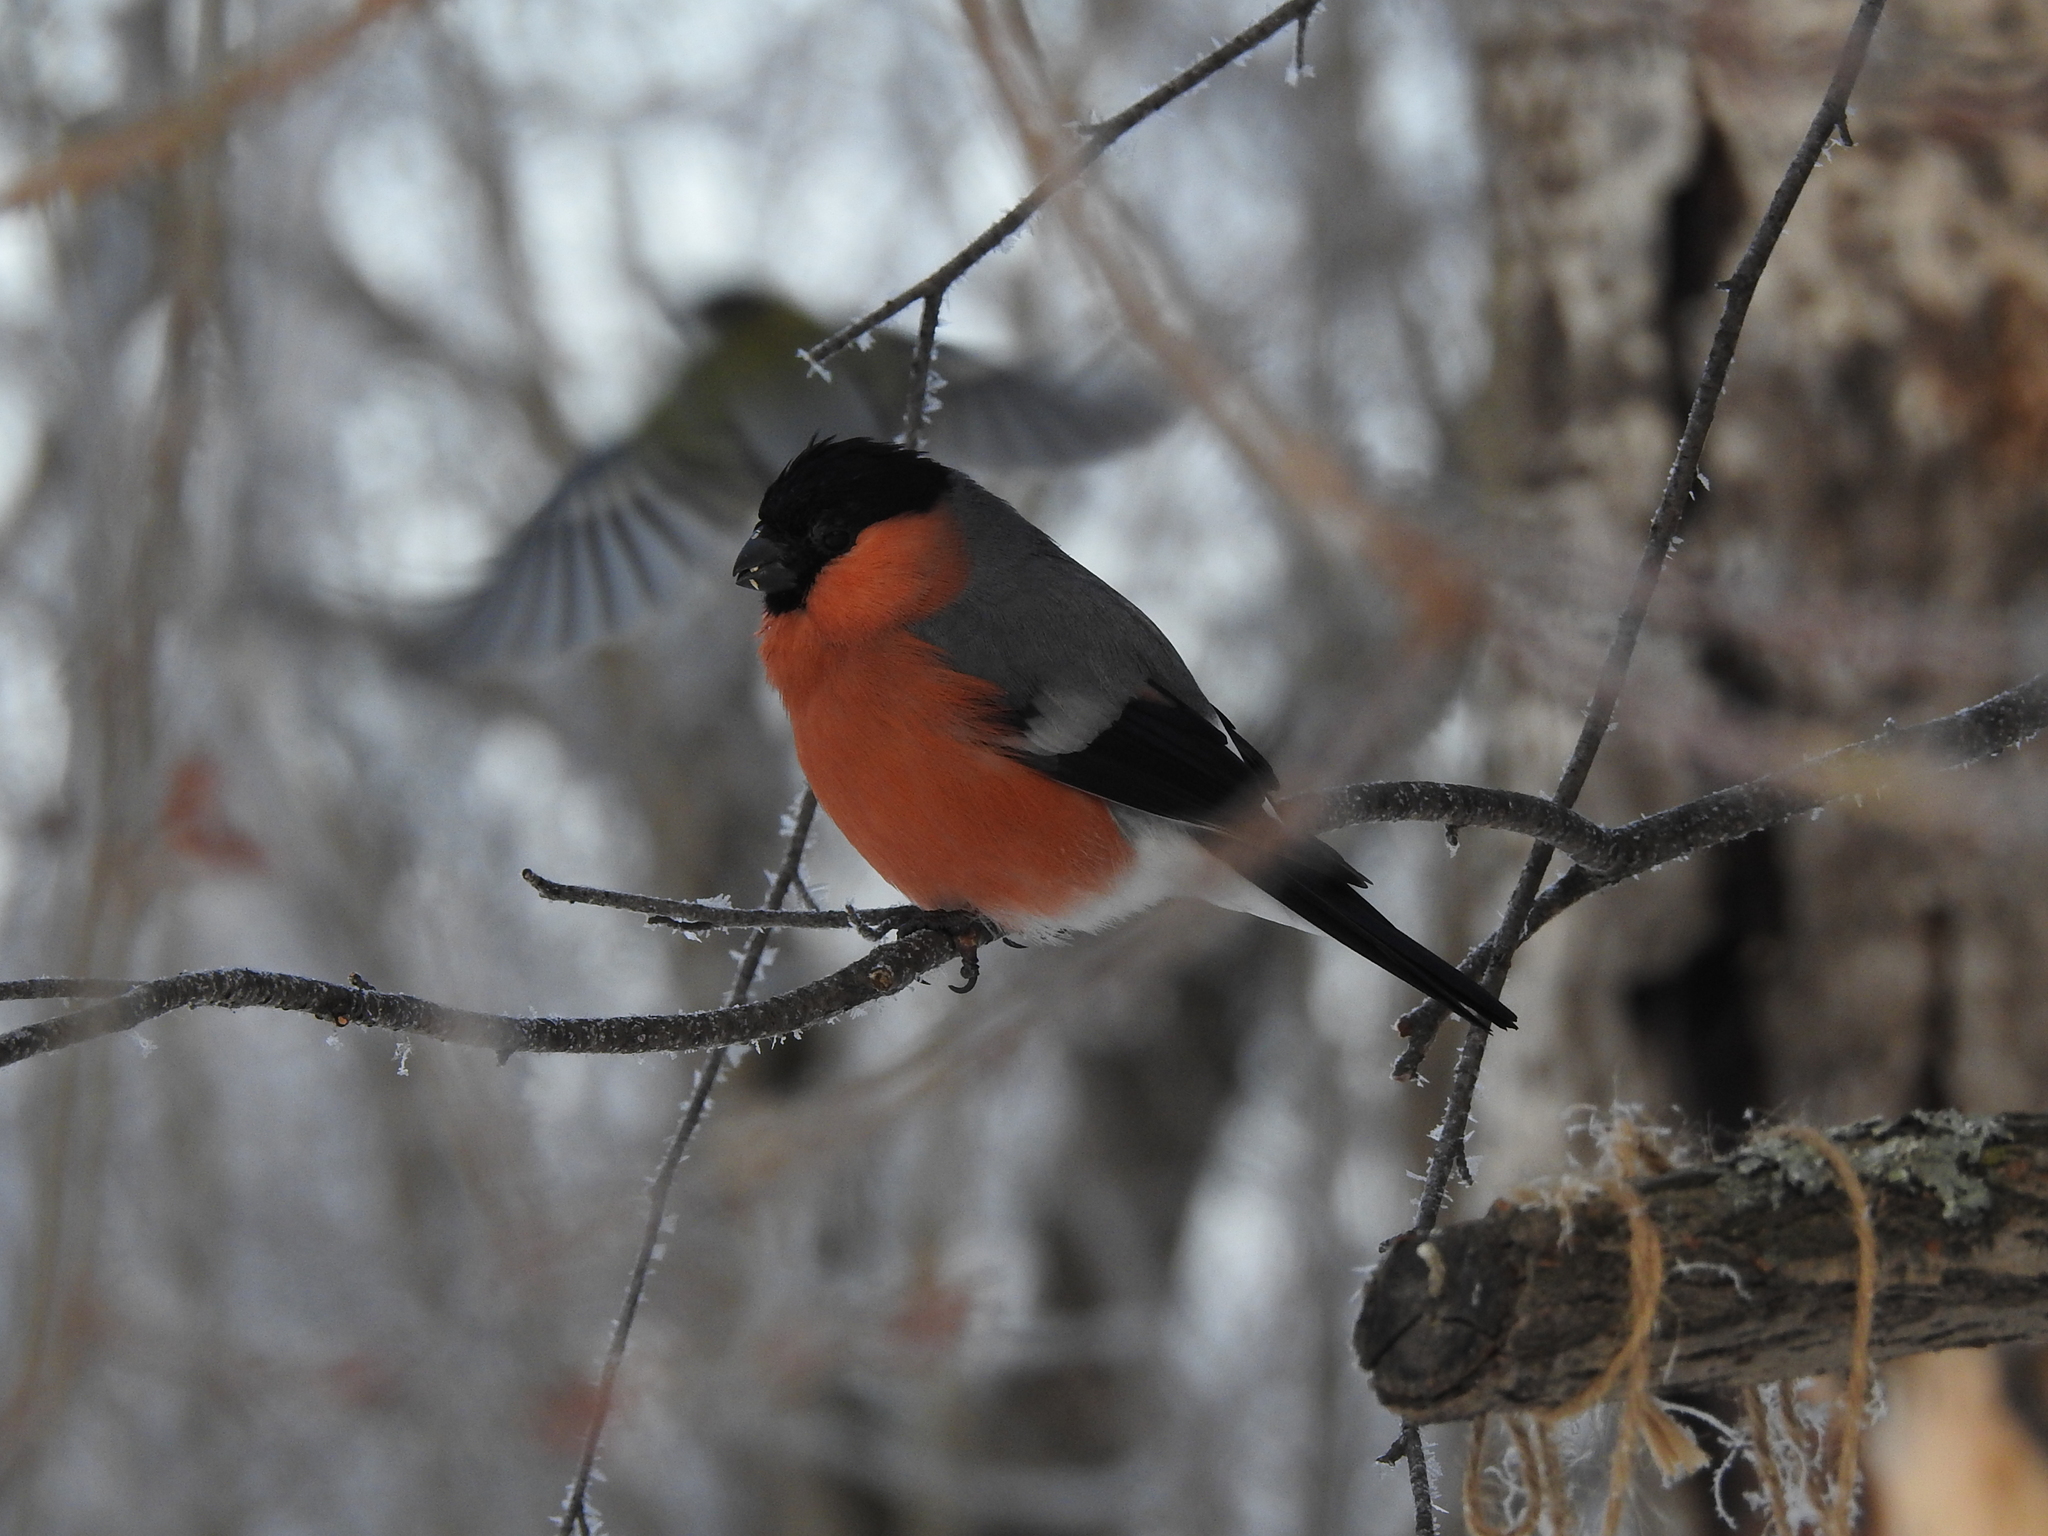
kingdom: Animalia
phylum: Chordata
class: Aves
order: Passeriformes
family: Fringillidae
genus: Pyrrhula
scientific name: Pyrrhula pyrrhula
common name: Eurasian bullfinch
